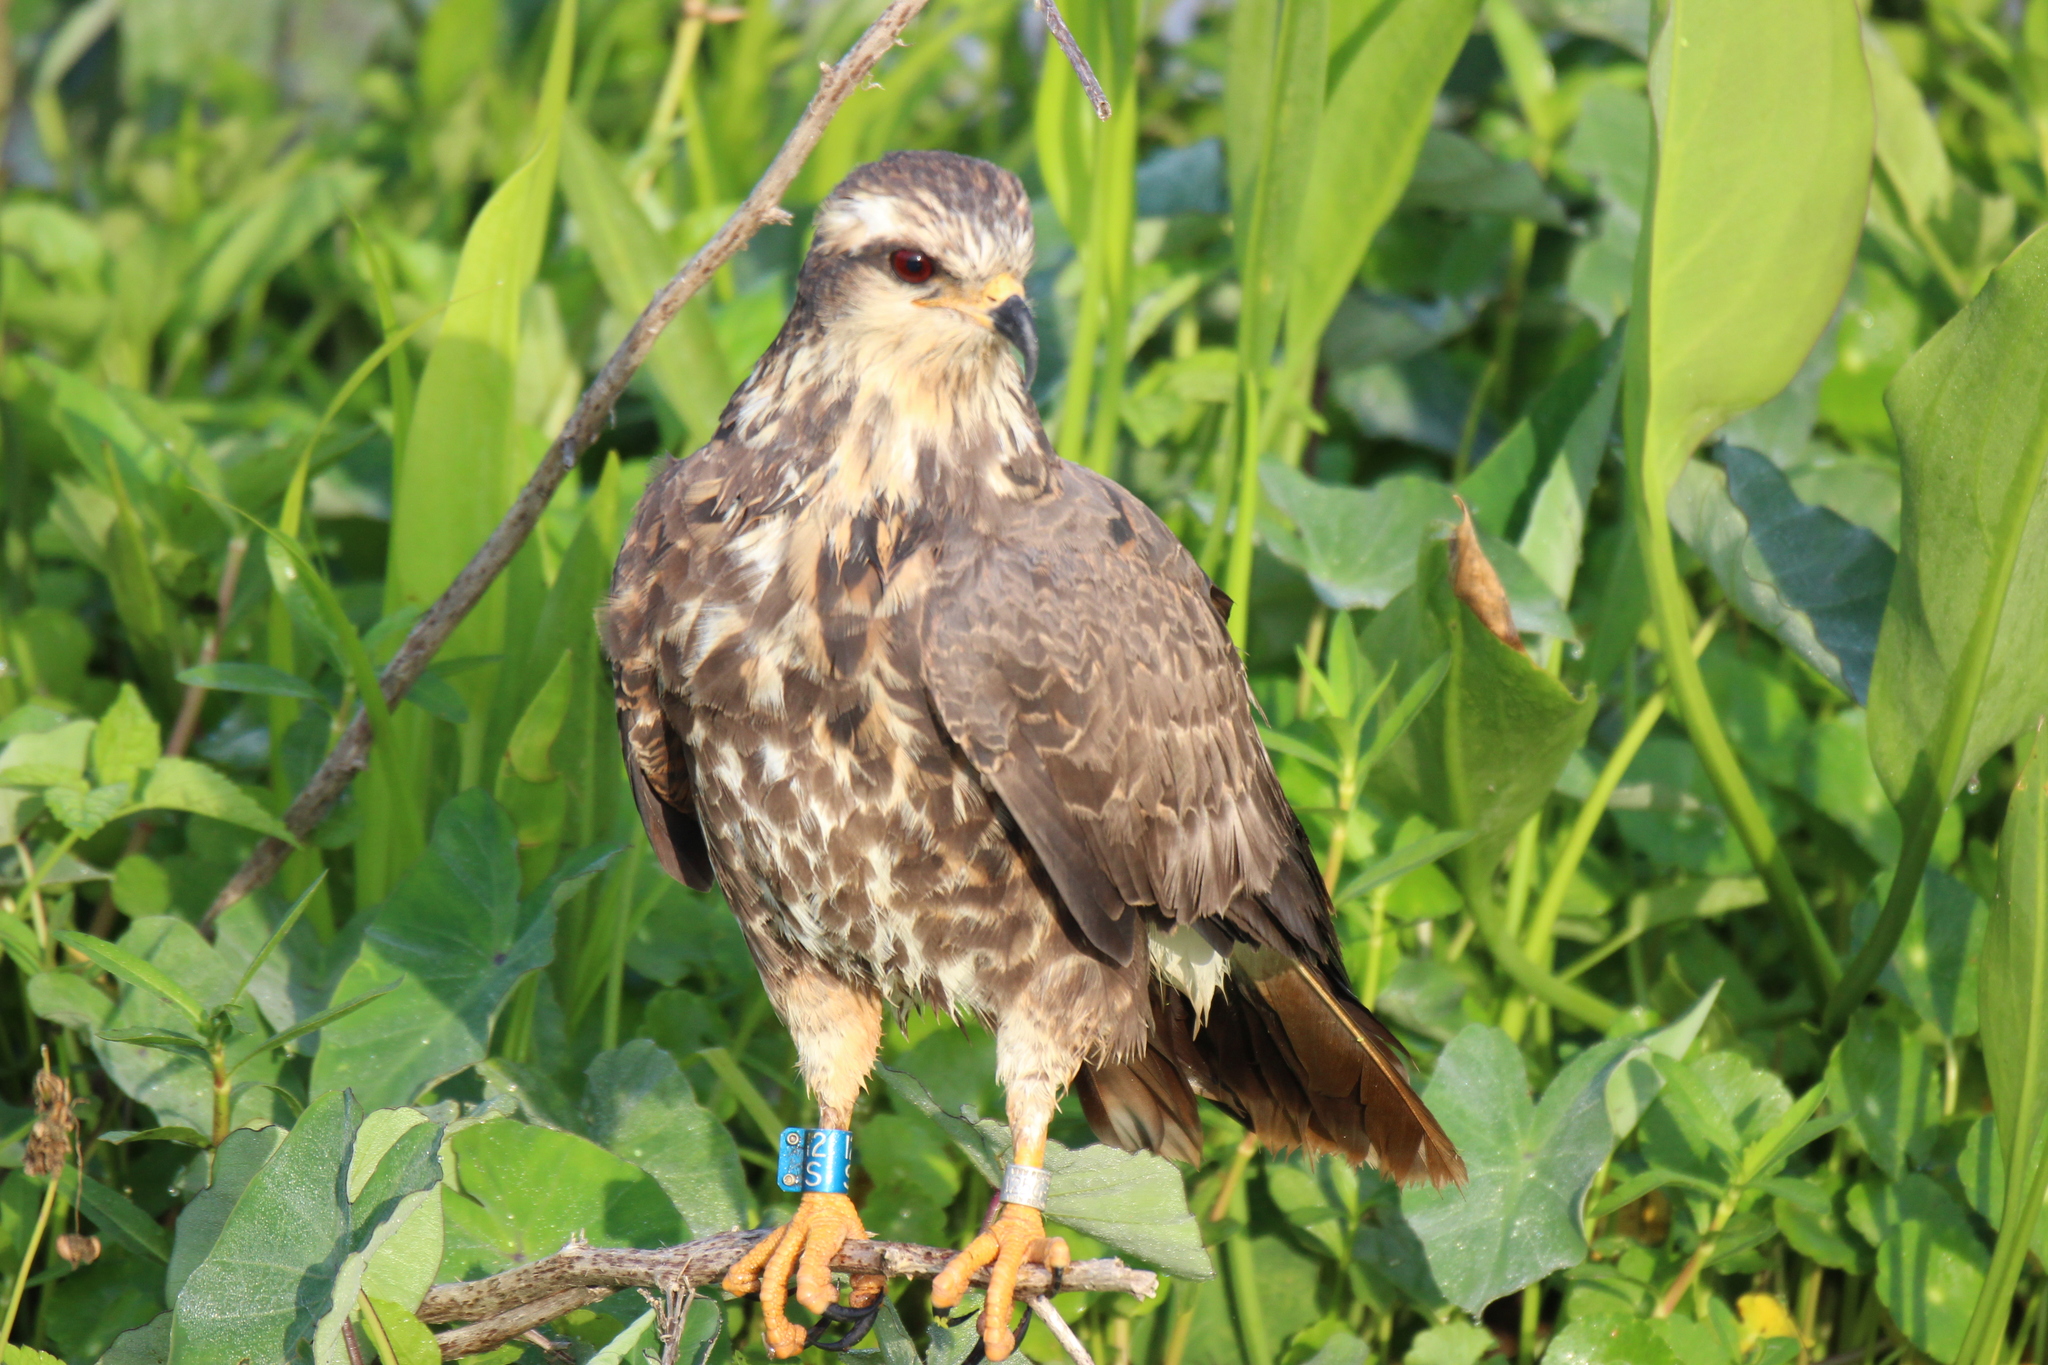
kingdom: Animalia
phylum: Chordata
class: Aves
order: Accipitriformes
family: Accipitridae
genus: Rostrhamus
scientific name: Rostrhamus sociabilis
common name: Snail kite
